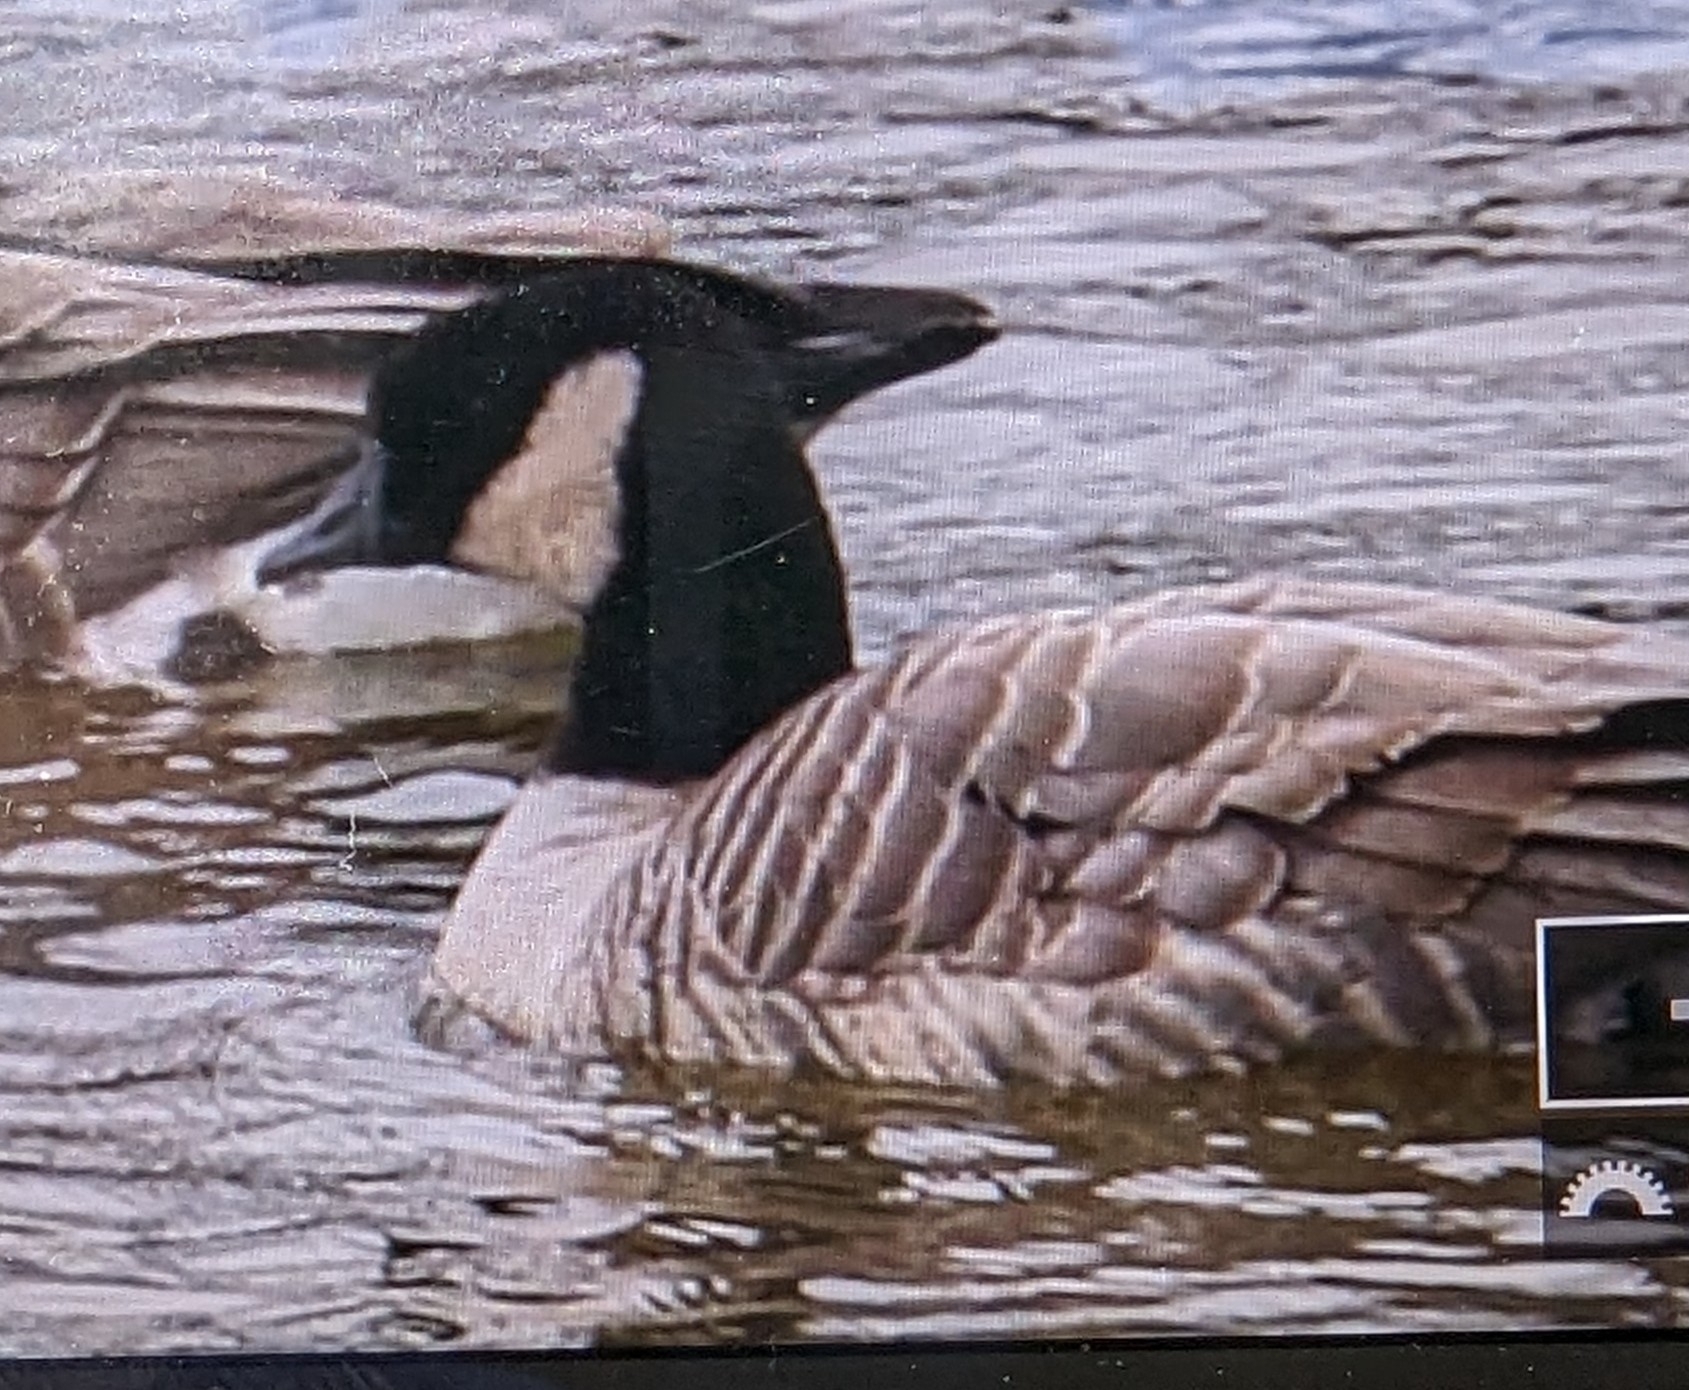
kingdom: Animalia
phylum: Chordata
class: Aves
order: Anseriformes
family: Anatidae
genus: Branta
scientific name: Branta hutchinsii
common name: Cackling goose
